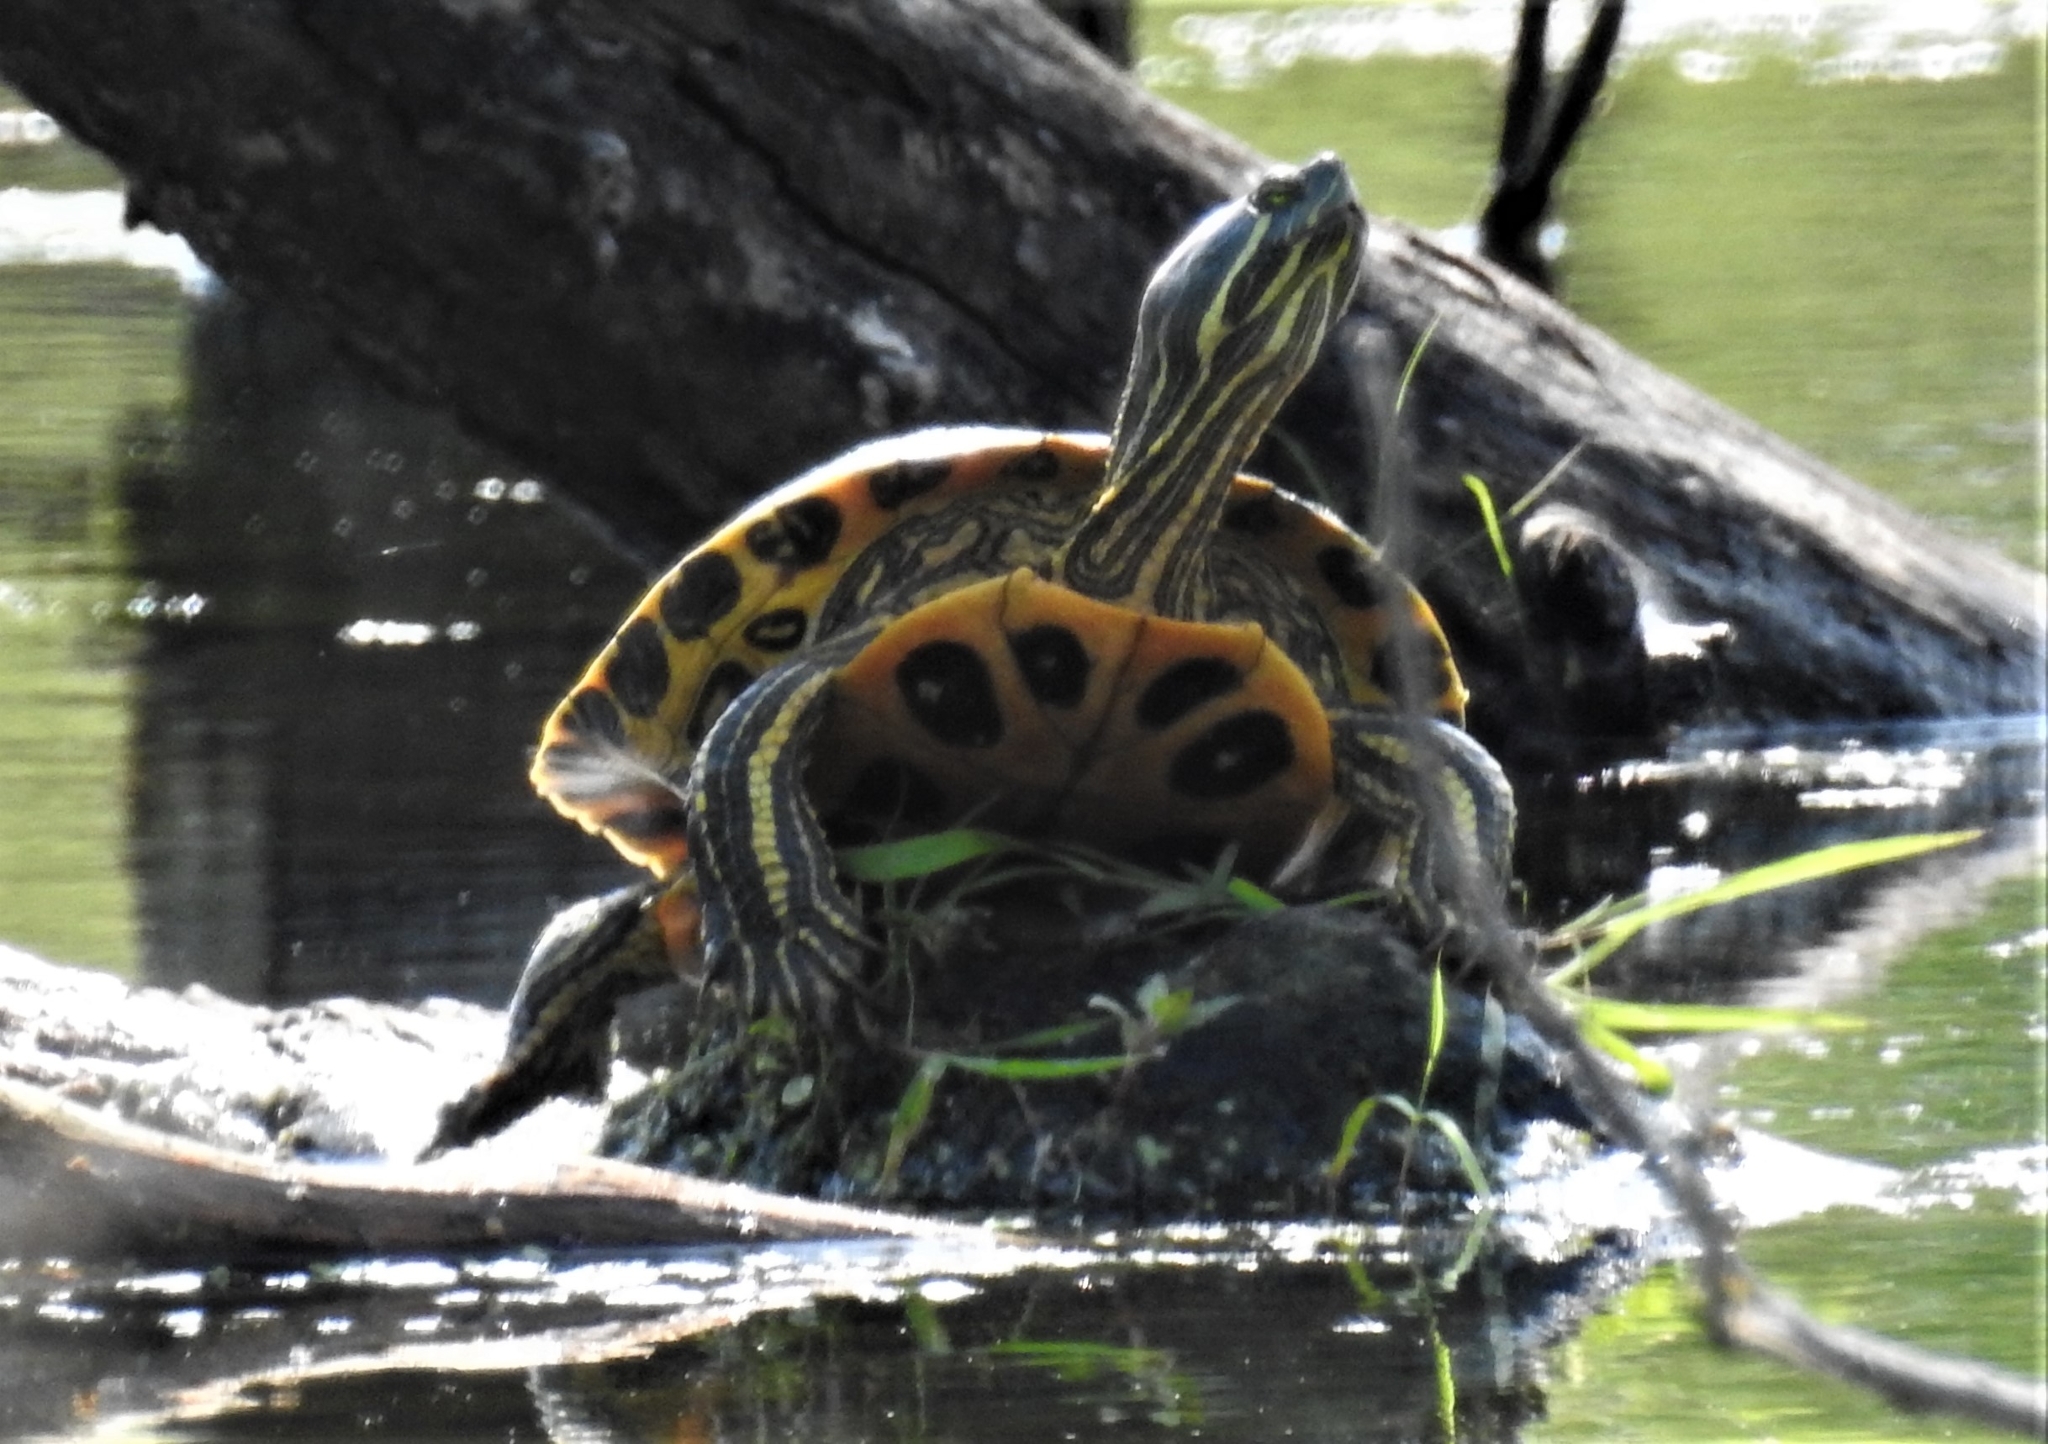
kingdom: Animalia
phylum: Chordata
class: Testudines
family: Emydidae
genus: Pseudemys
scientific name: Pseudemys concinna
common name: Eastern river cooter
